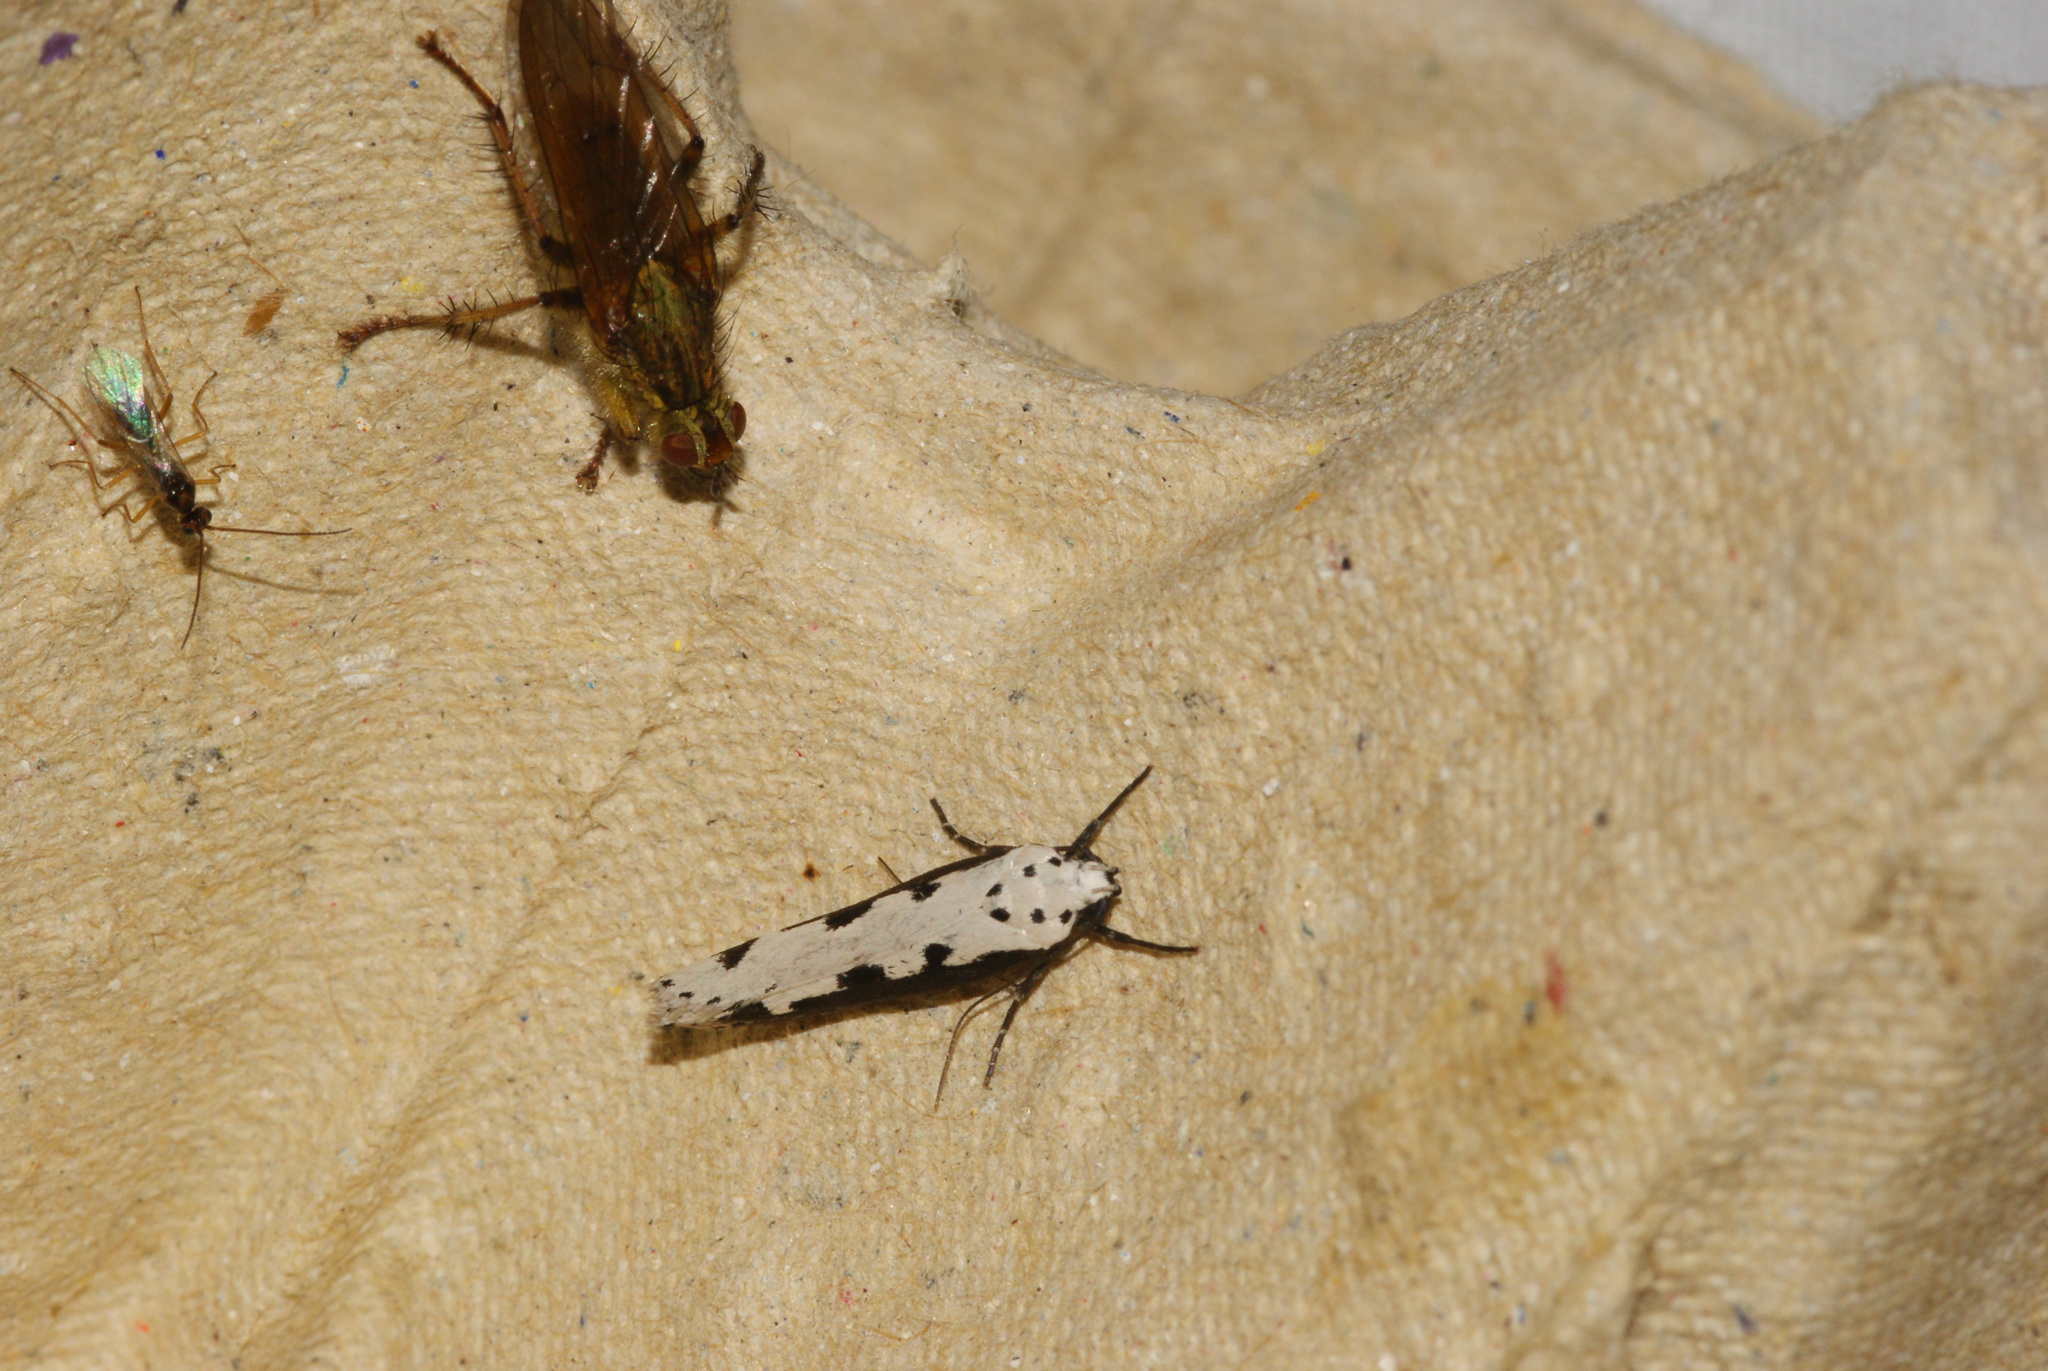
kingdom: Animalia
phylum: Arthropoda
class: Insecta
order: Lepidoptera
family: Ethmiidae
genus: Ethmia
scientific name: Ethmia bipunctella
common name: Bordered ermel
